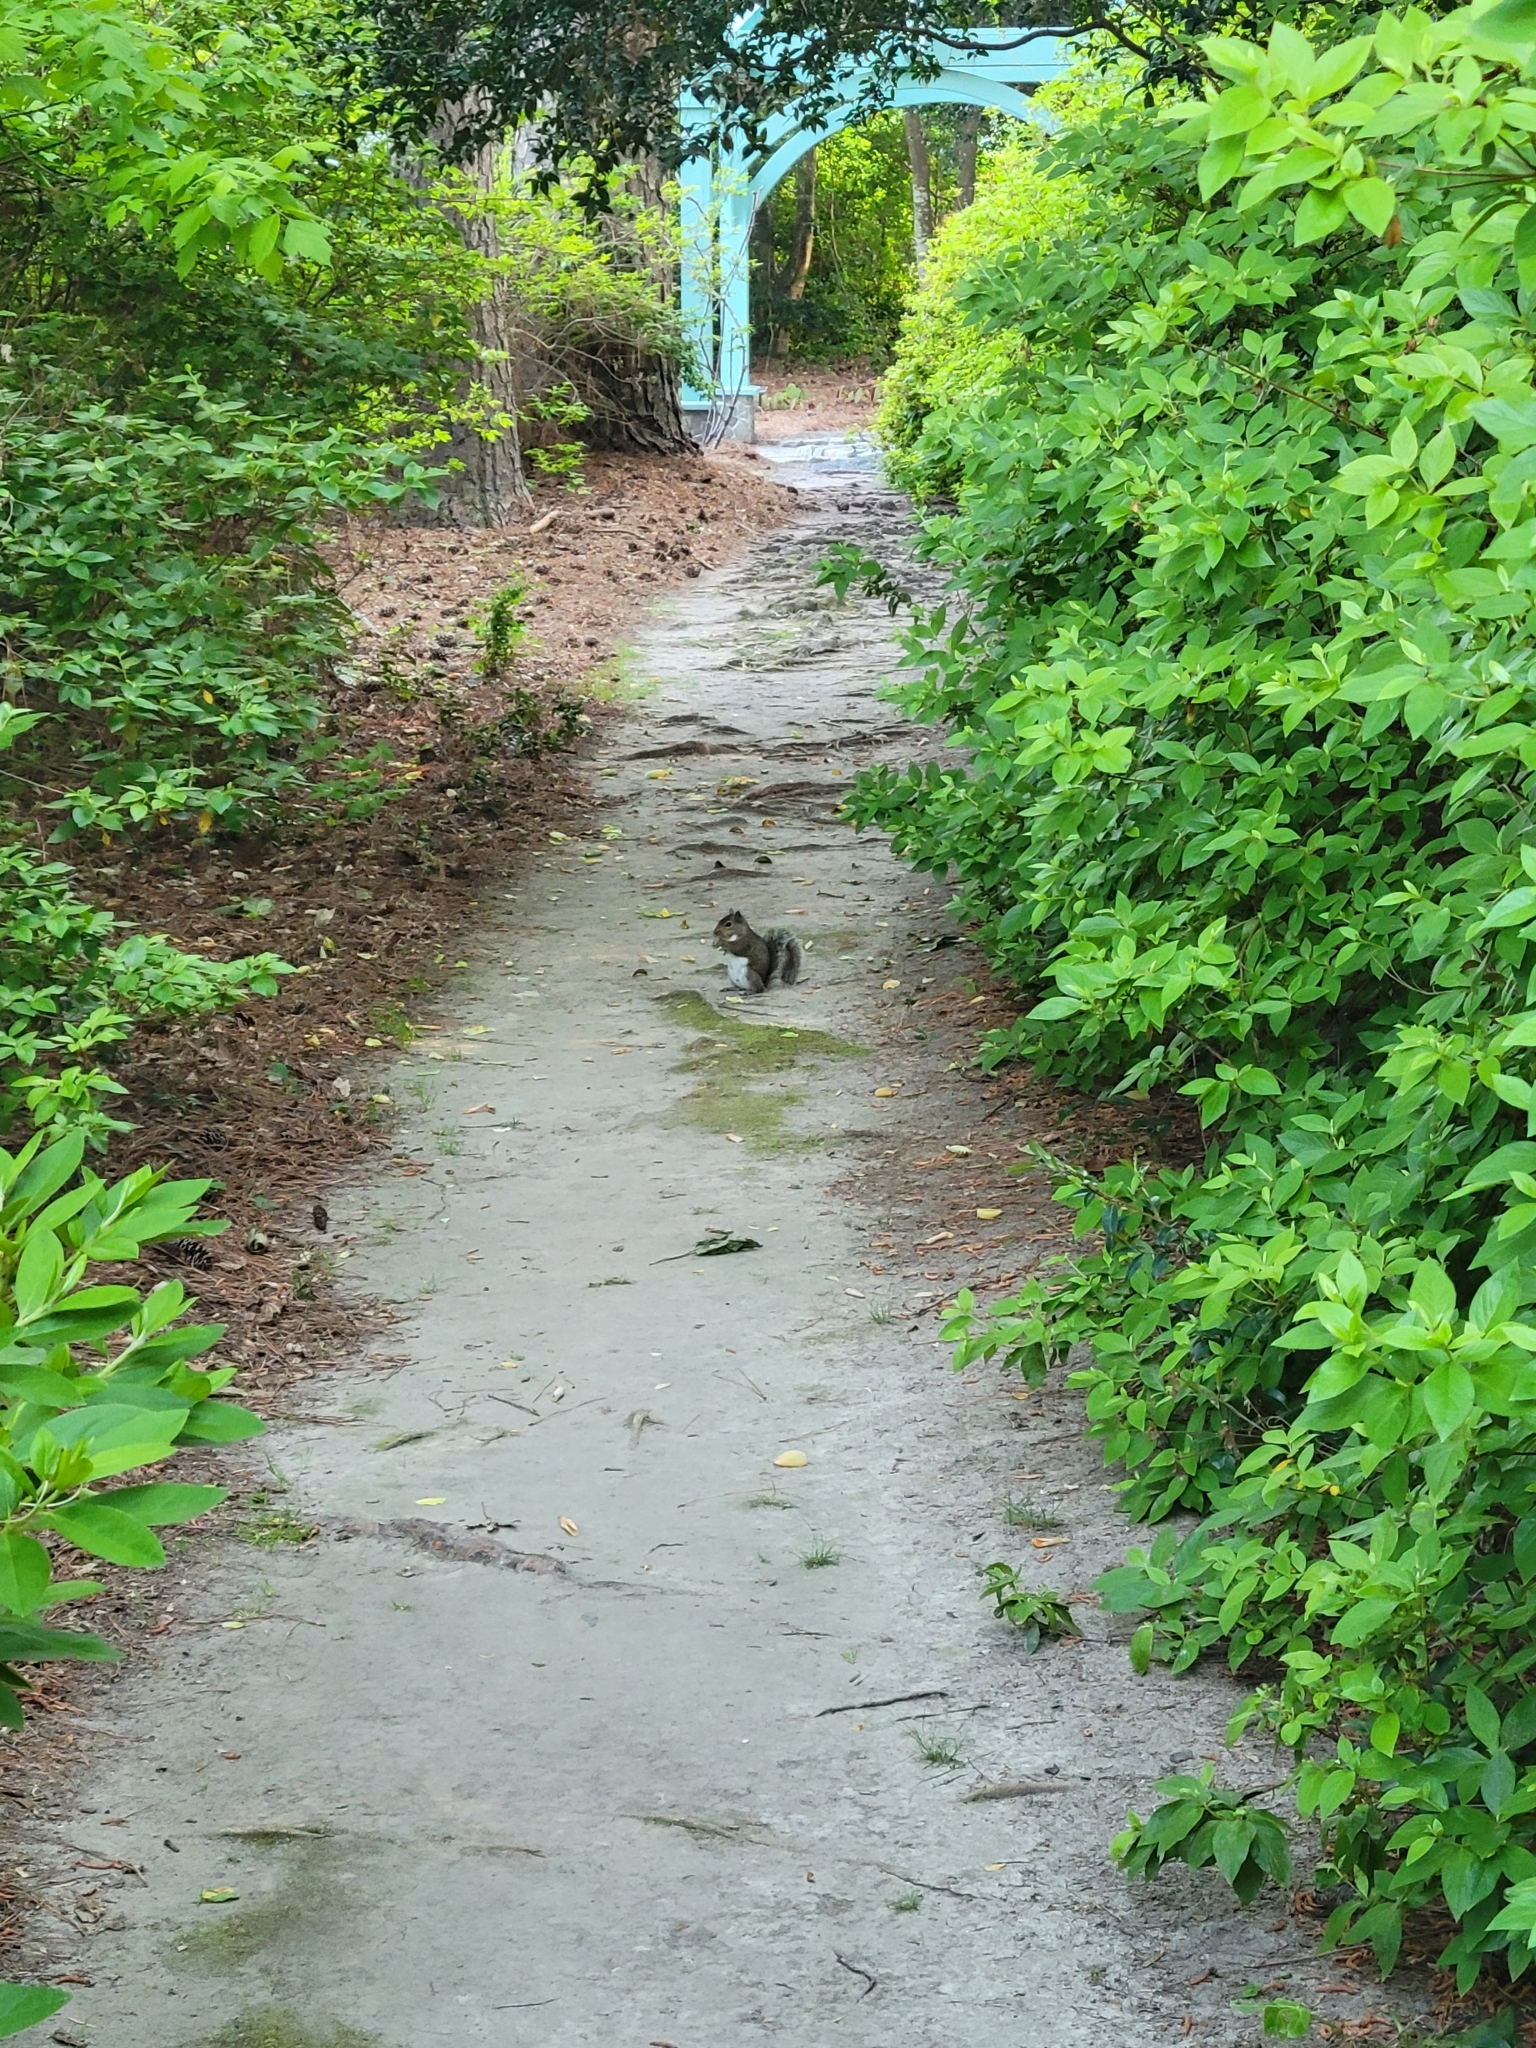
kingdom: Animalia
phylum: Chordata
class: Mammalia
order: Rodentia
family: Sciuridae
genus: Sciurus
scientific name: Sciurus carolinensis
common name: Eastern gray squirrel
